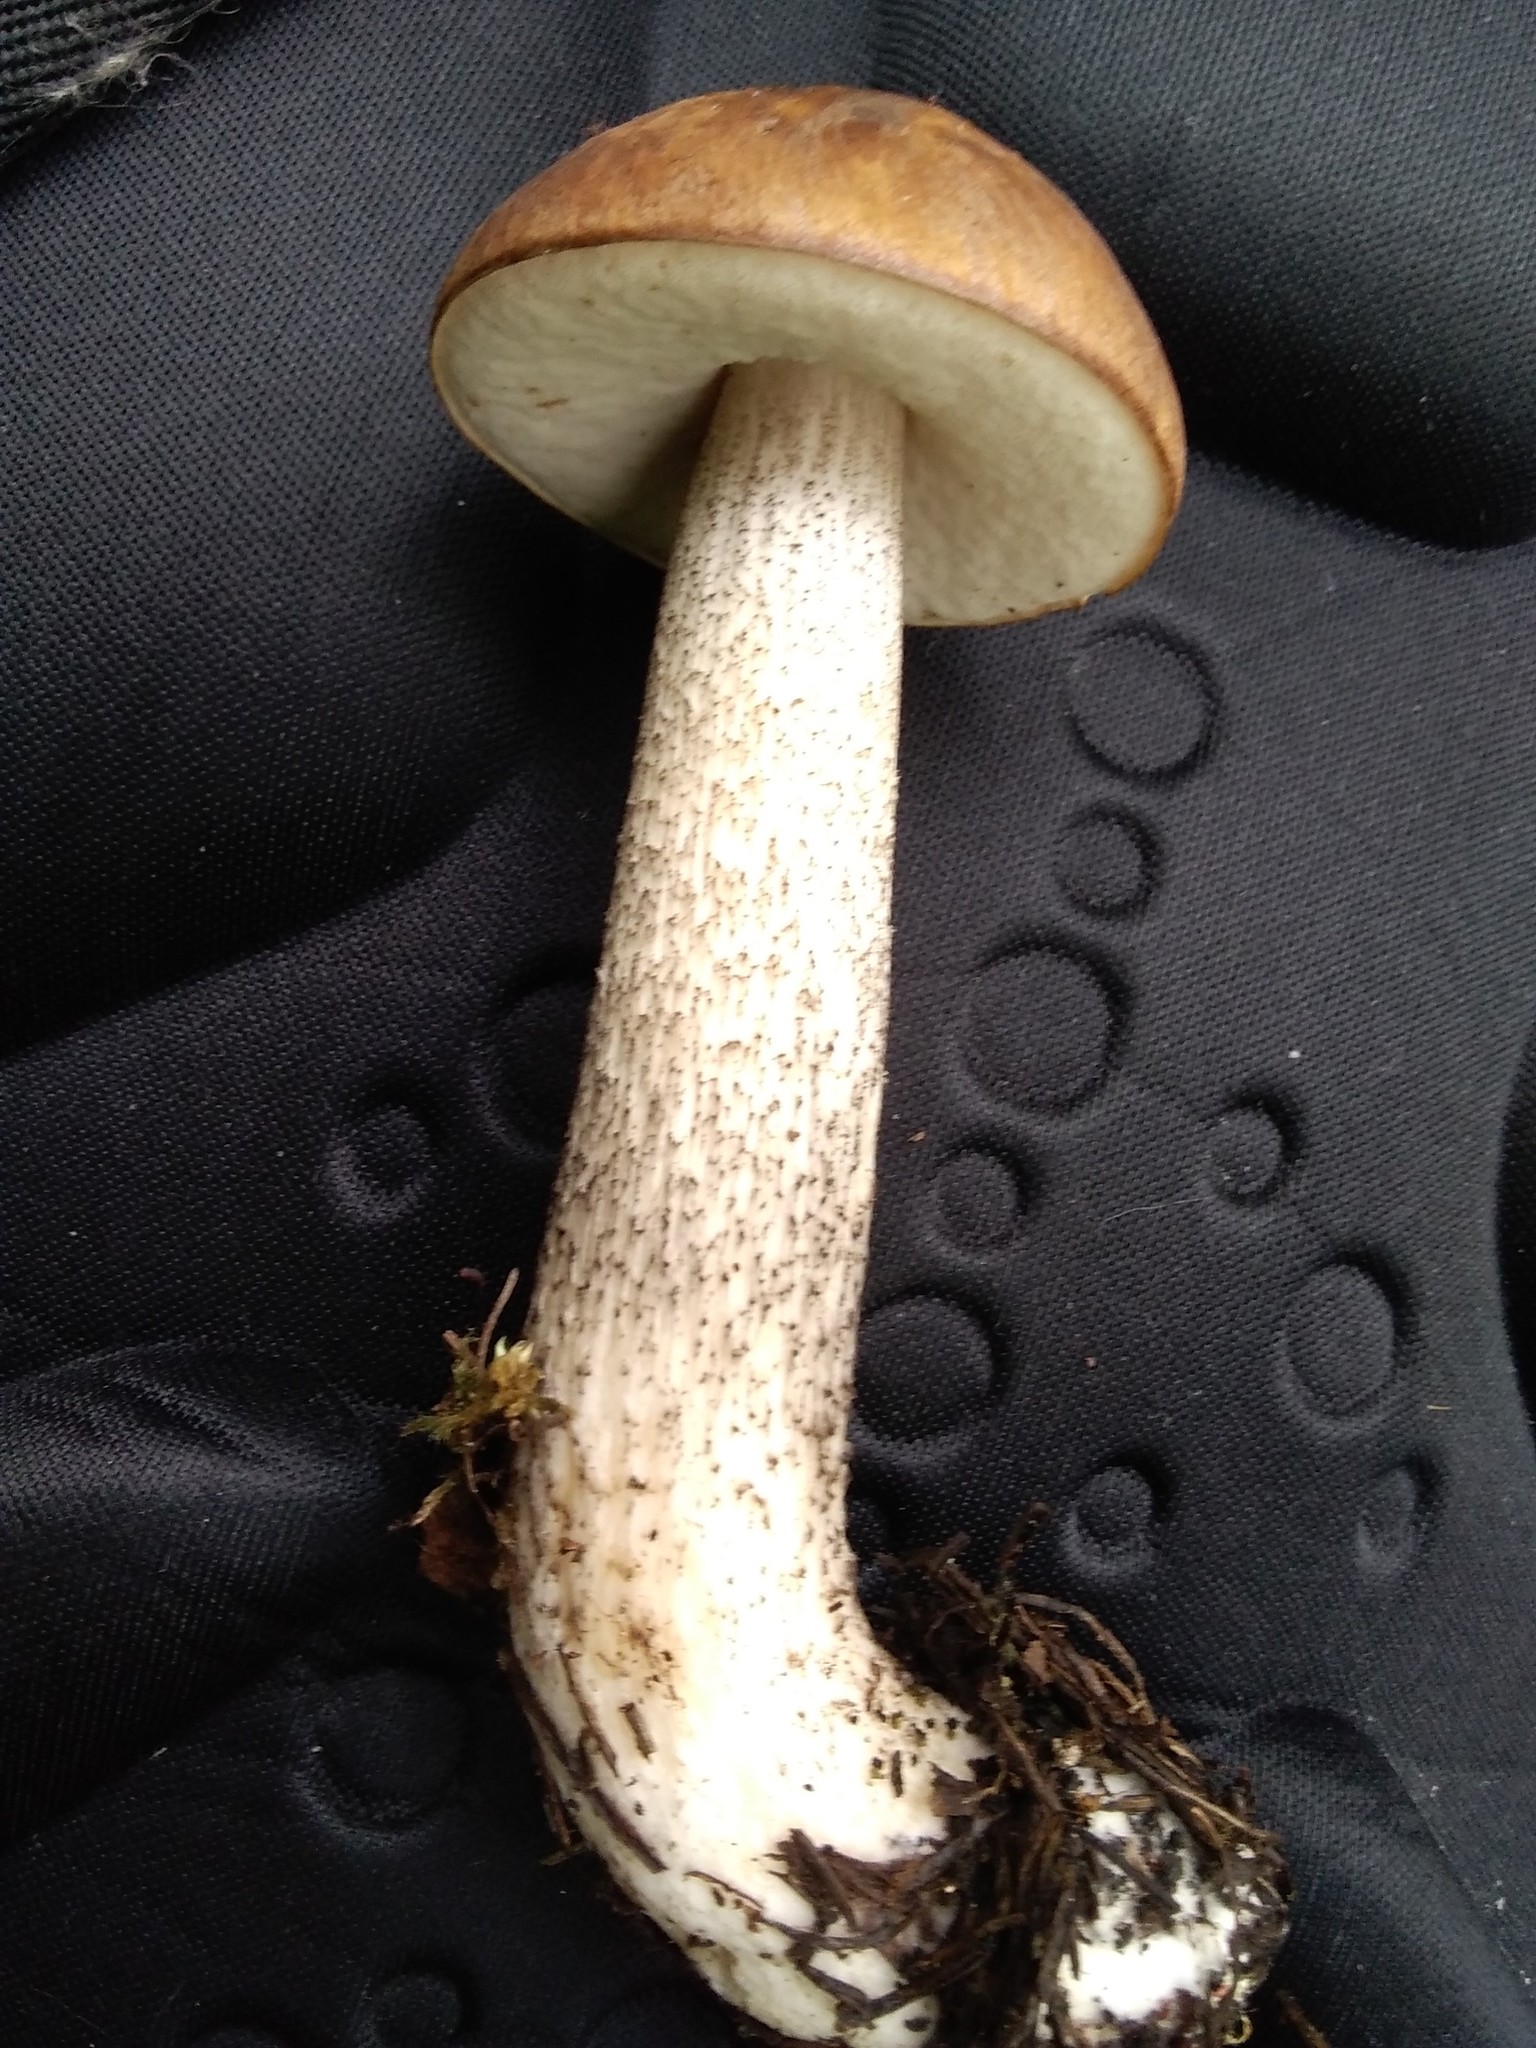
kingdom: Fungi
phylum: Basidiomycota
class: Agaricomycetes
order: Boletales
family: Boletaceae
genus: Leccinum
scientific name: Leccinum scabrum
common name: Blushing bolete
